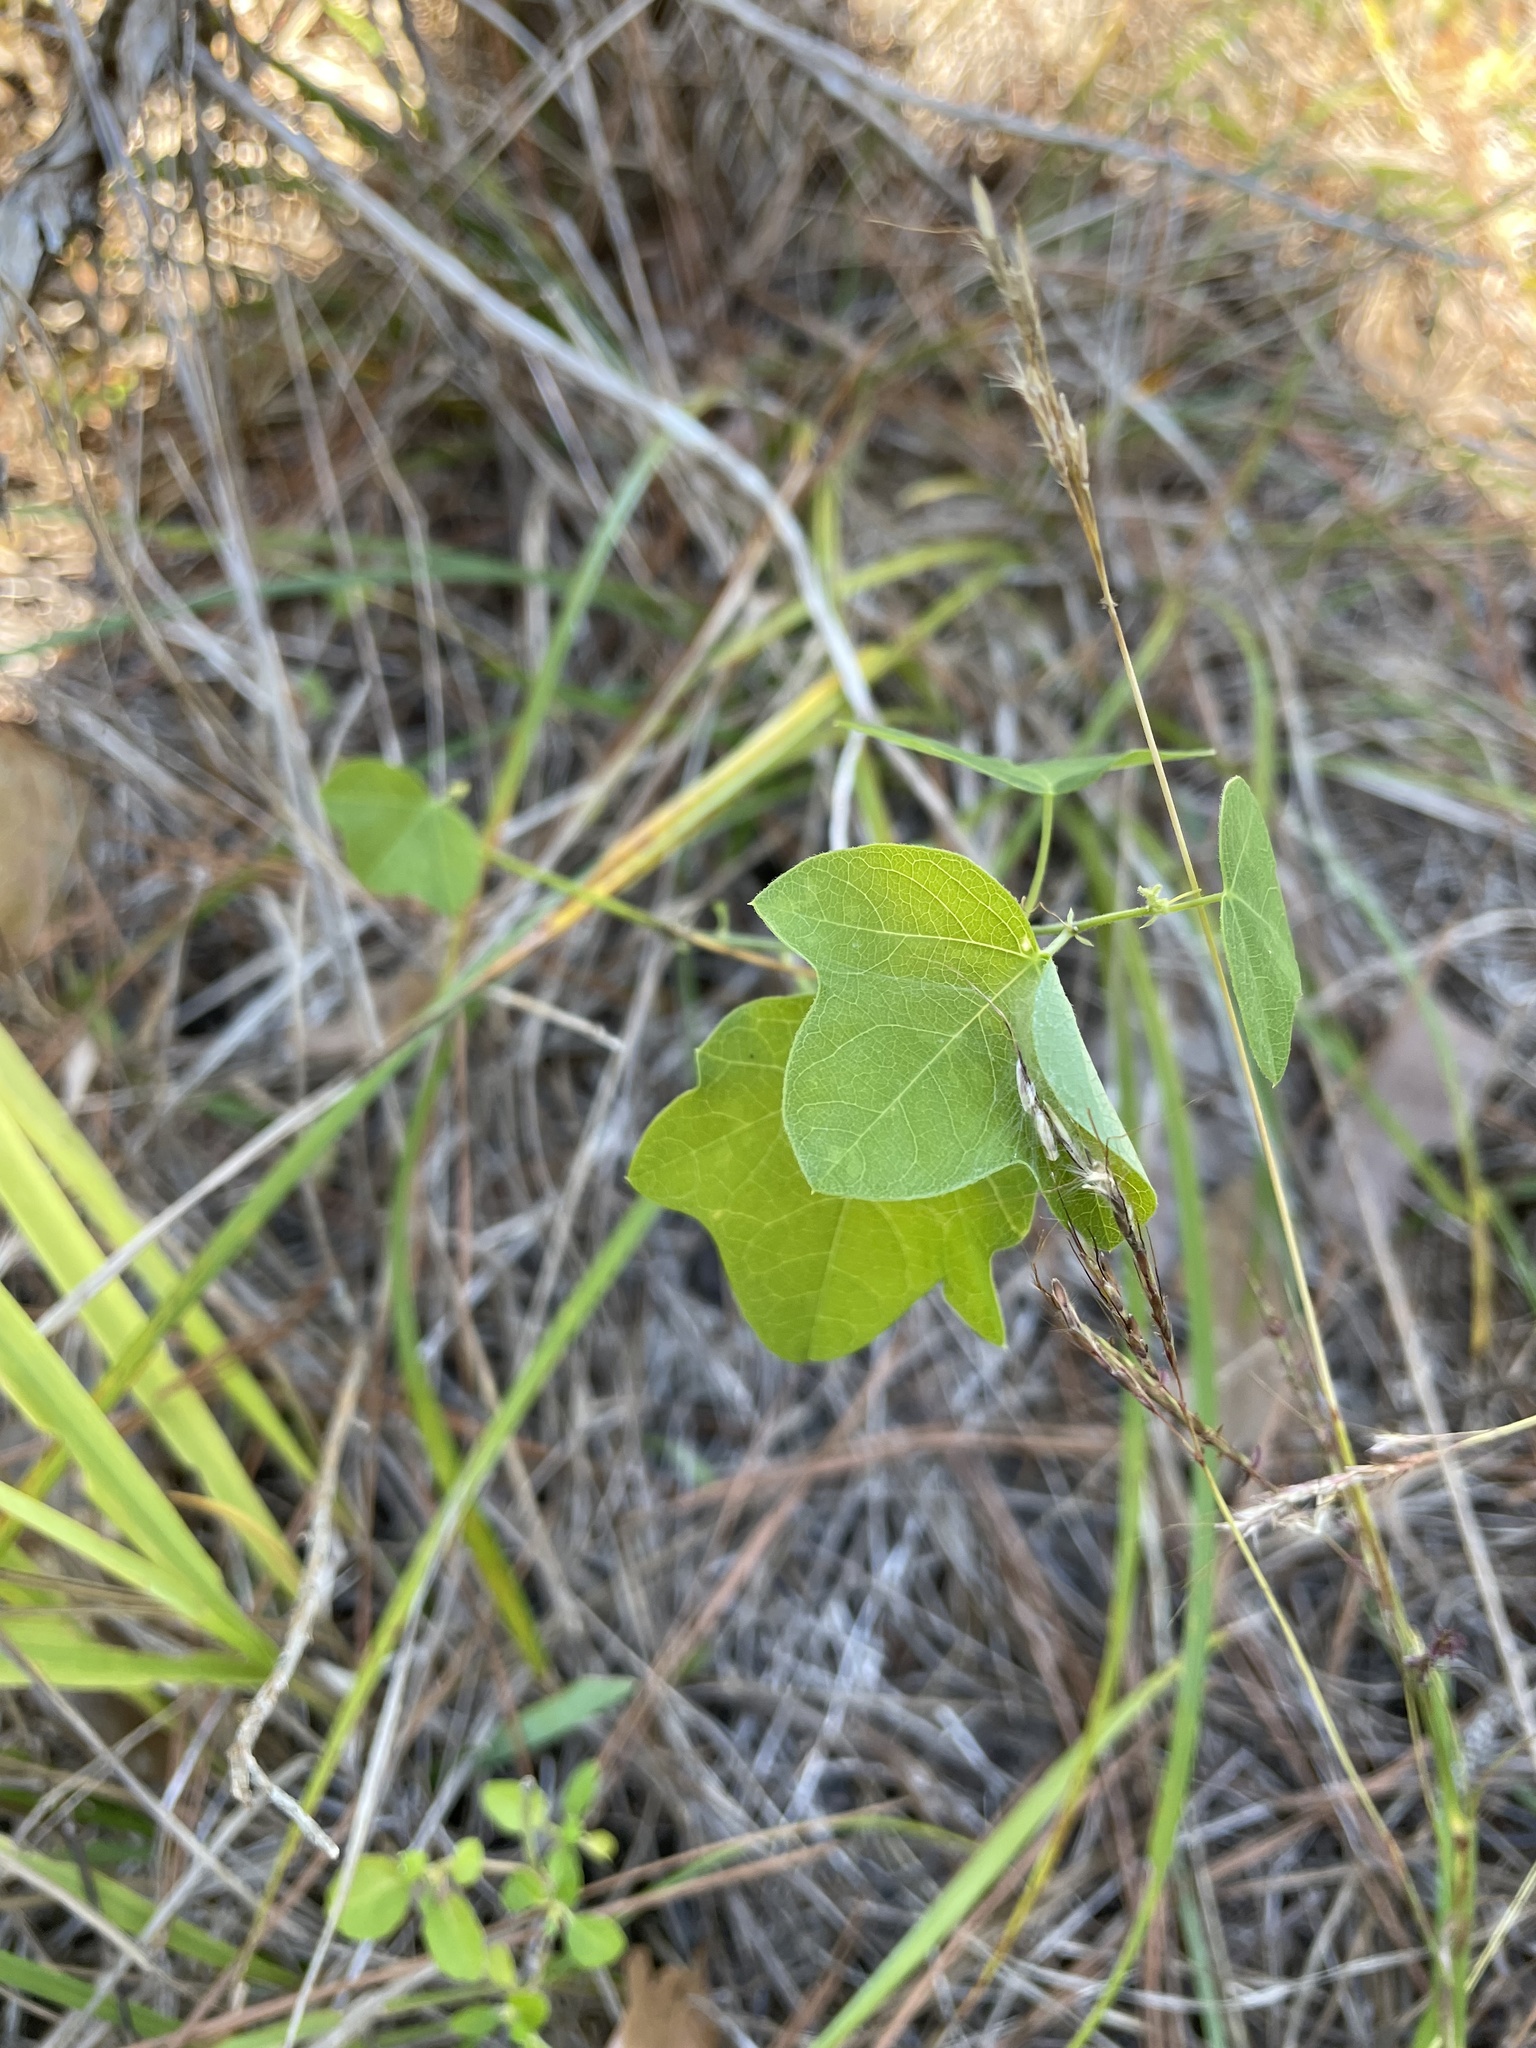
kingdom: Plantae
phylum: Tracheophyta
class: Magnoliopsida
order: Malpighiales
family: Passifloraceae
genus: Passiflora
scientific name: Passiflora lutea
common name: Yellow passionflower
